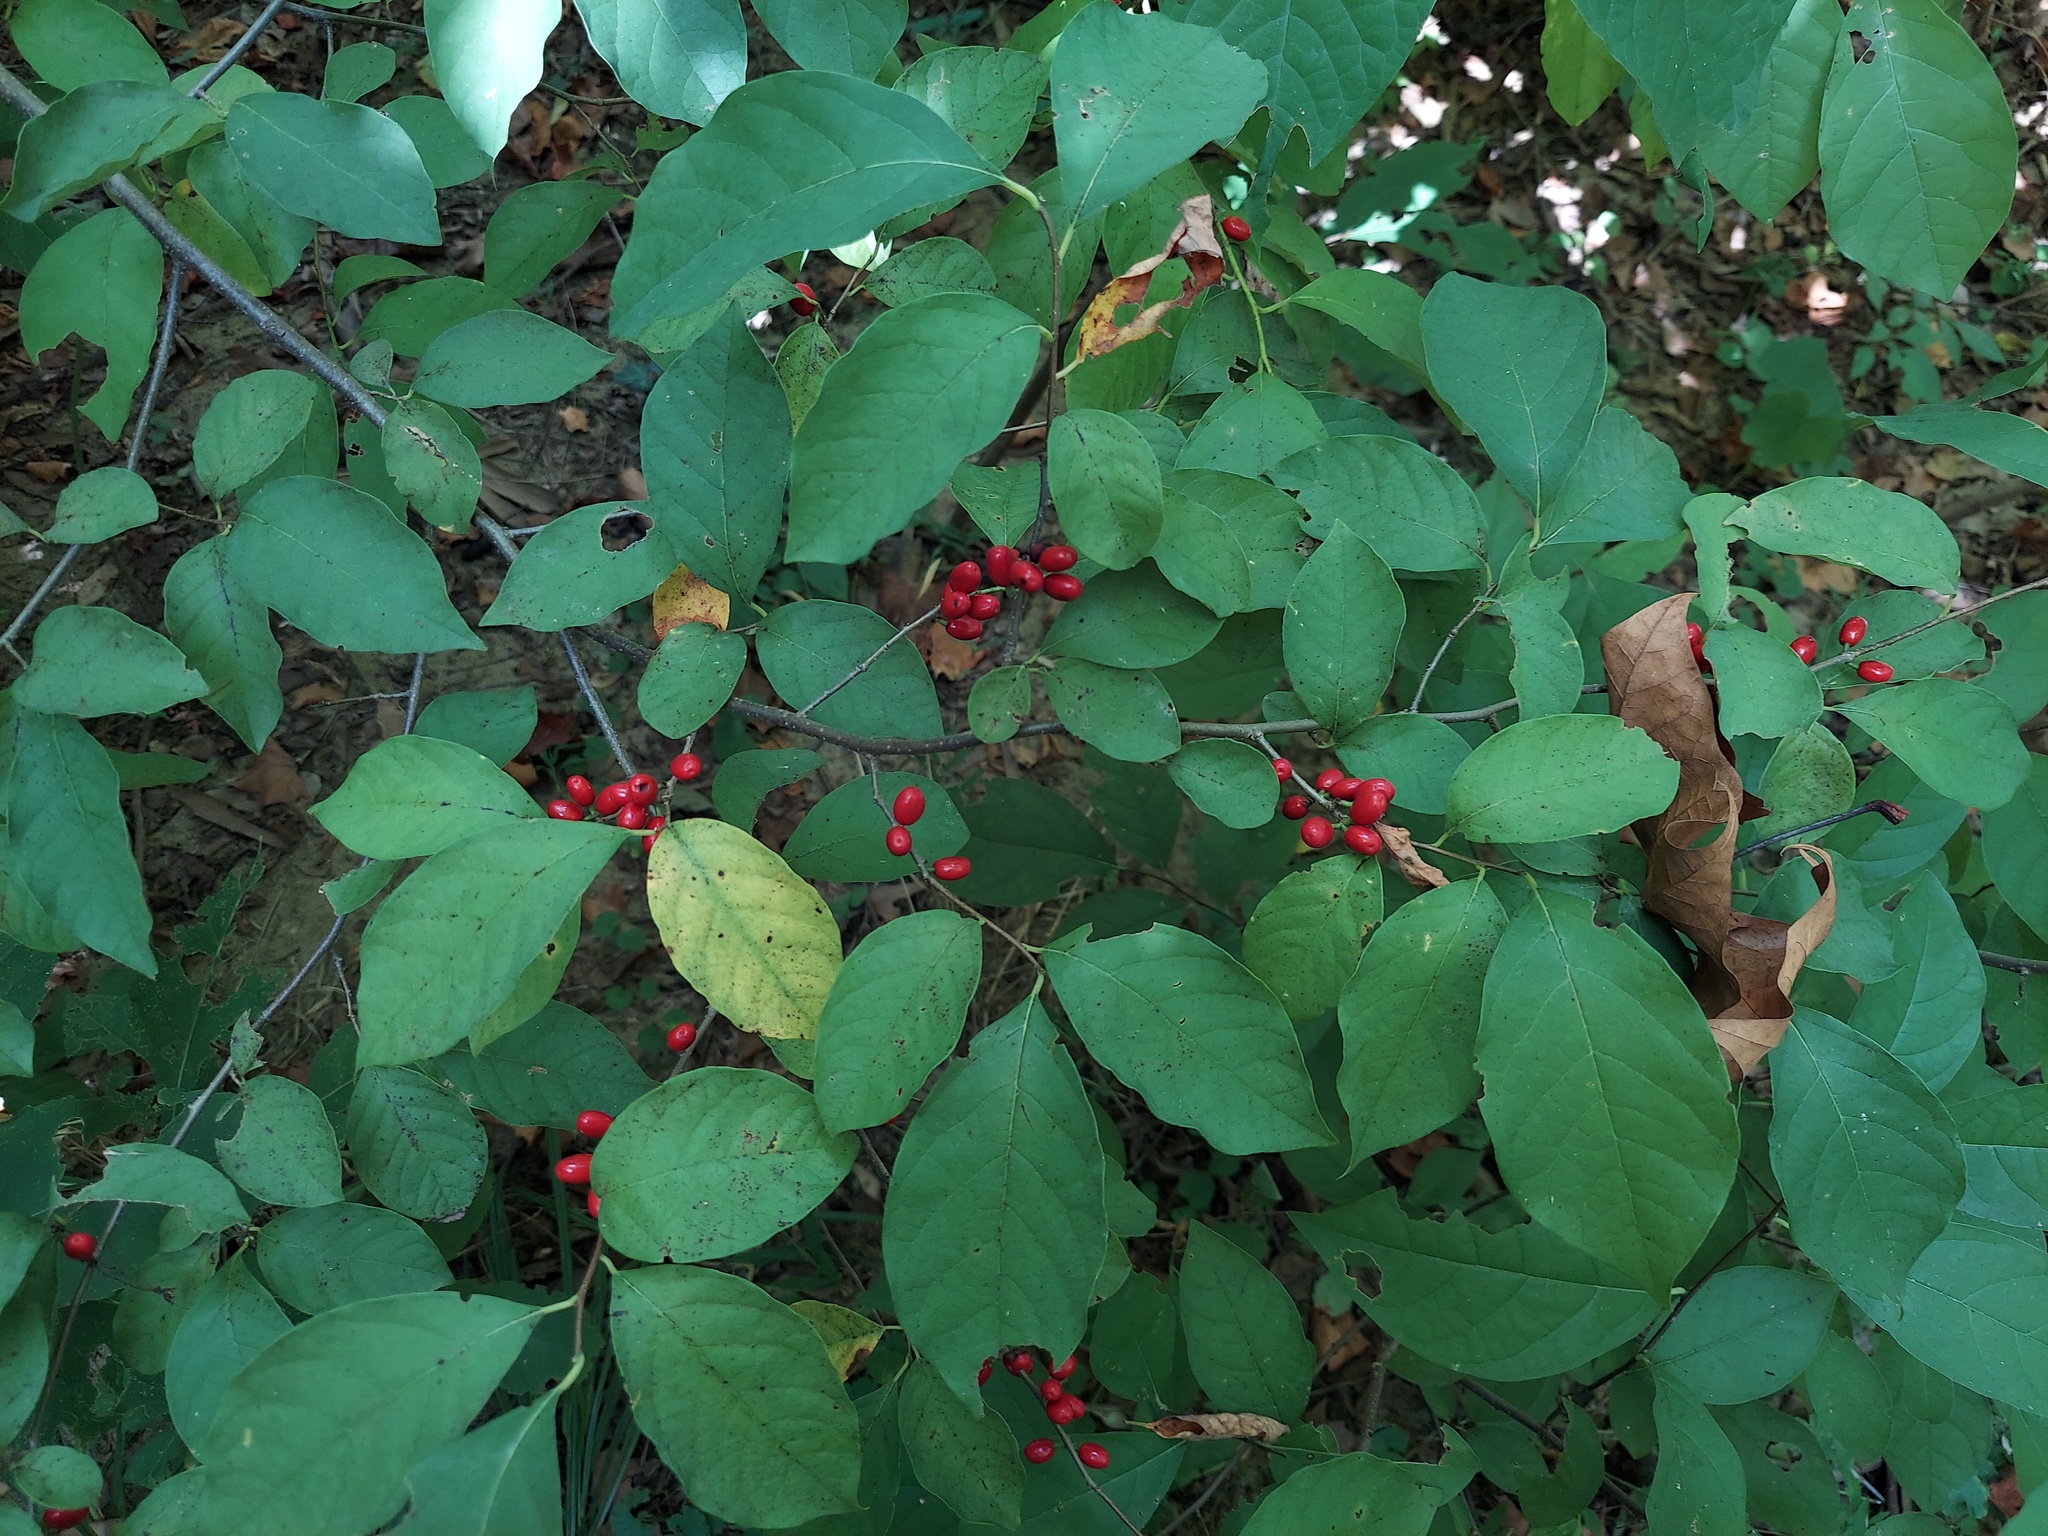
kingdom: Plantae
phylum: Tracheophyta
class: Magnoliopsida
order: Laurales
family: Lauraceae
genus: Lindera
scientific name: Lindera benzoin
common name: Spicebush
